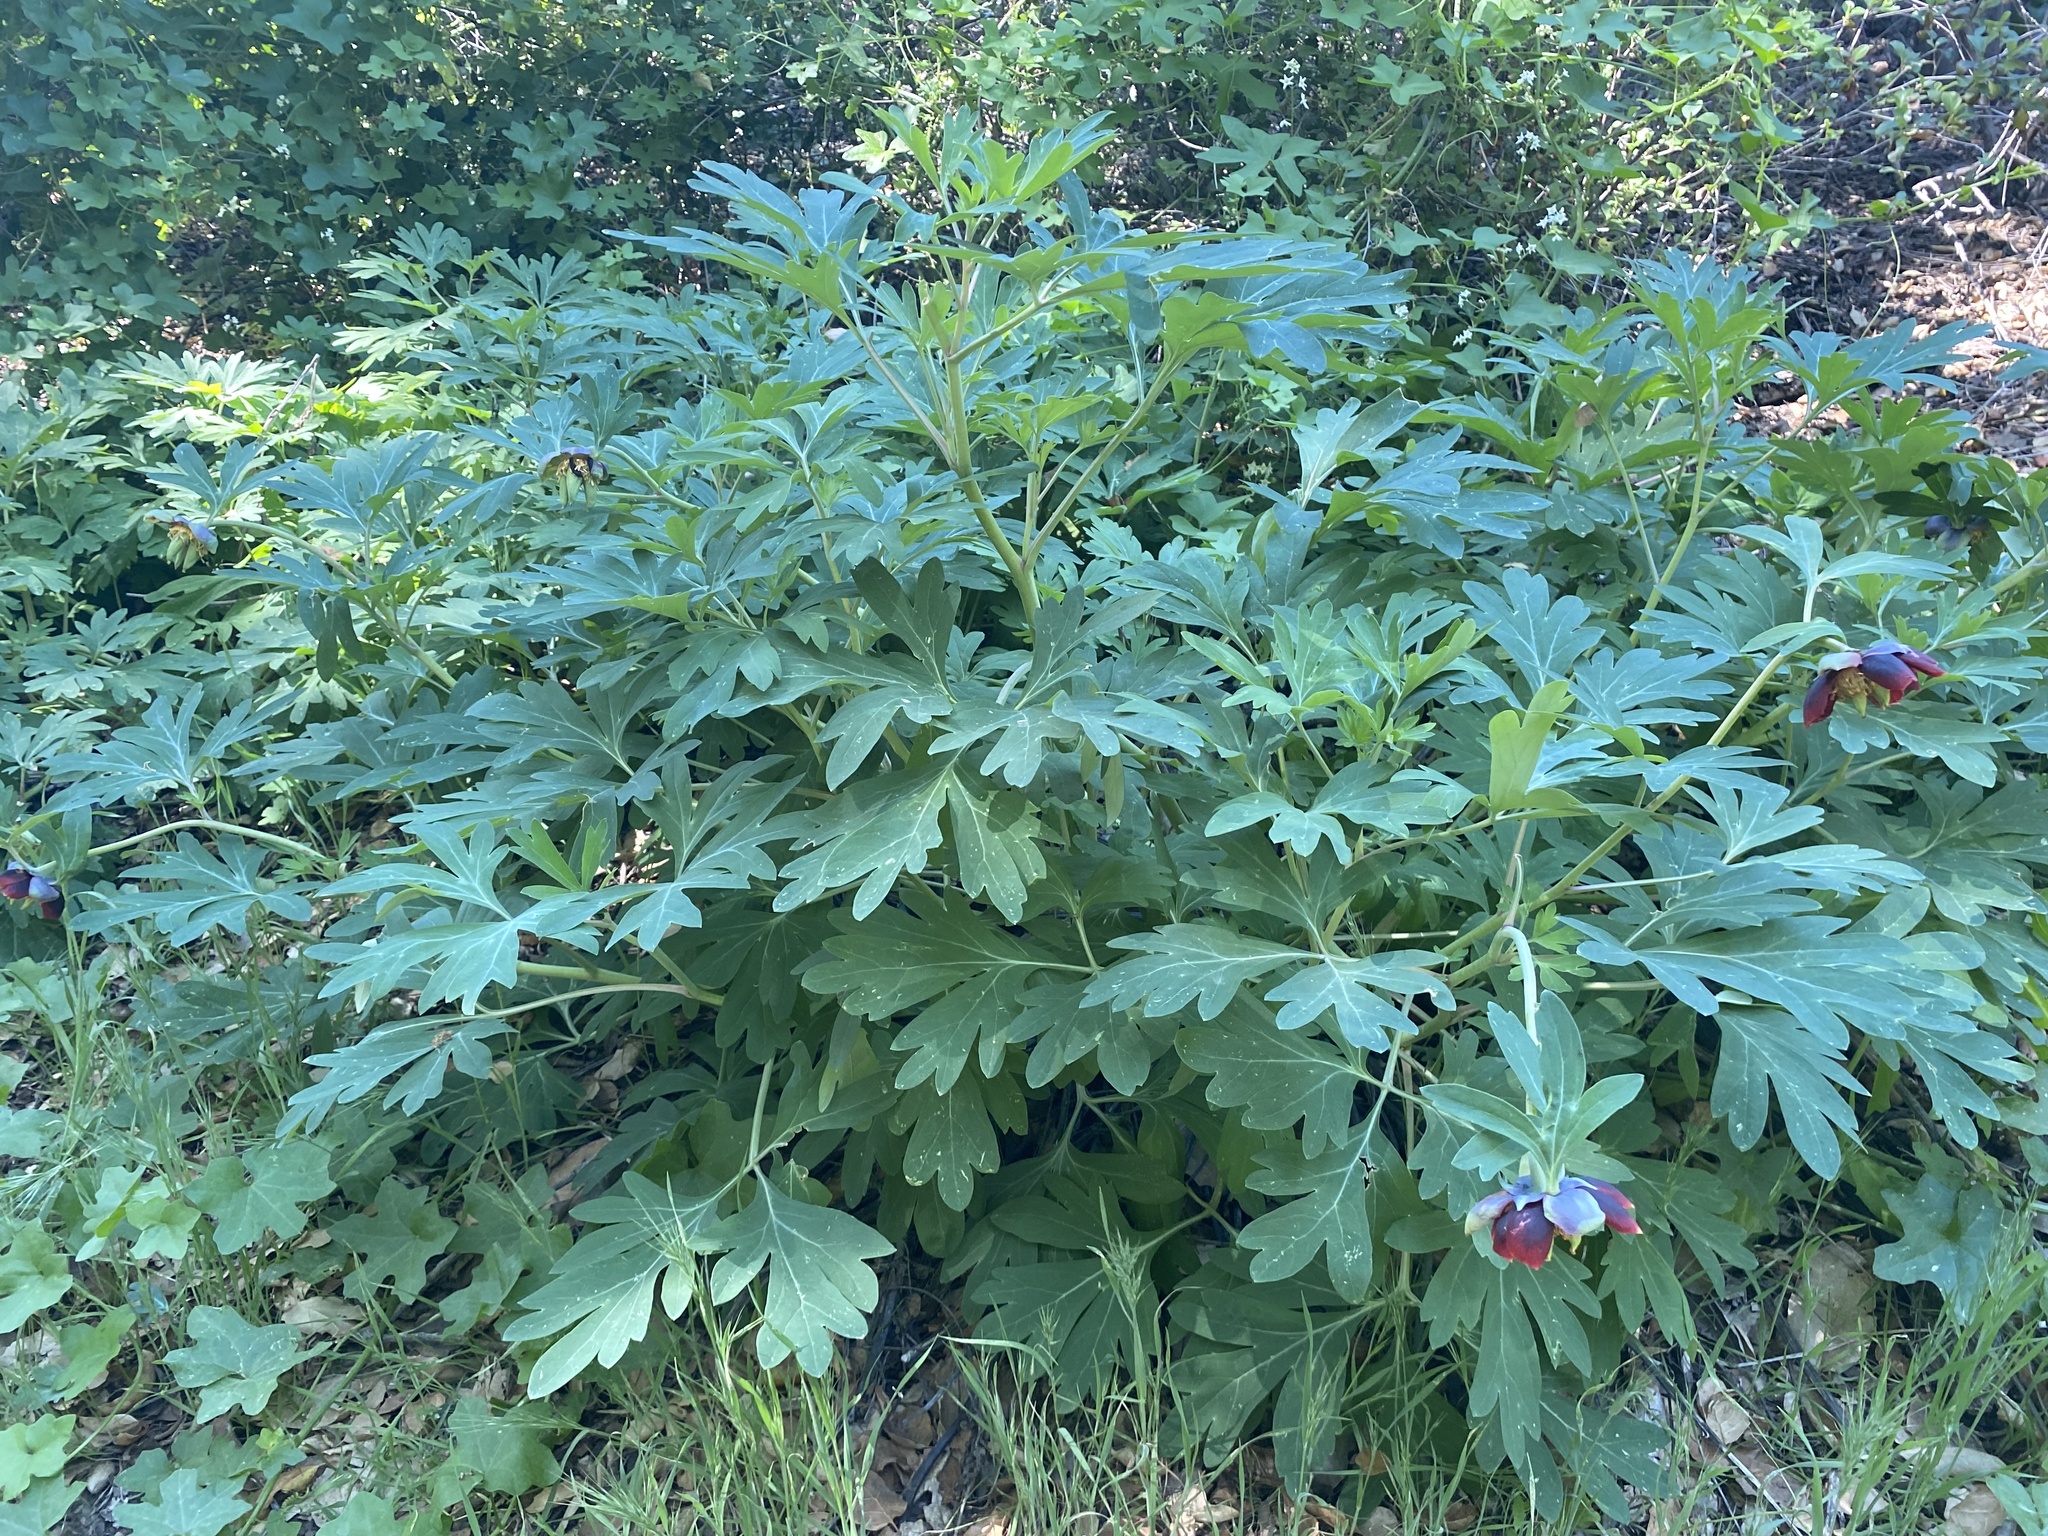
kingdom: Plantae
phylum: Tracheophyta
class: Magnoliopsida
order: Saxifragales
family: Paeoniaceae
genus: Paeonia
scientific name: Paeonia californica
